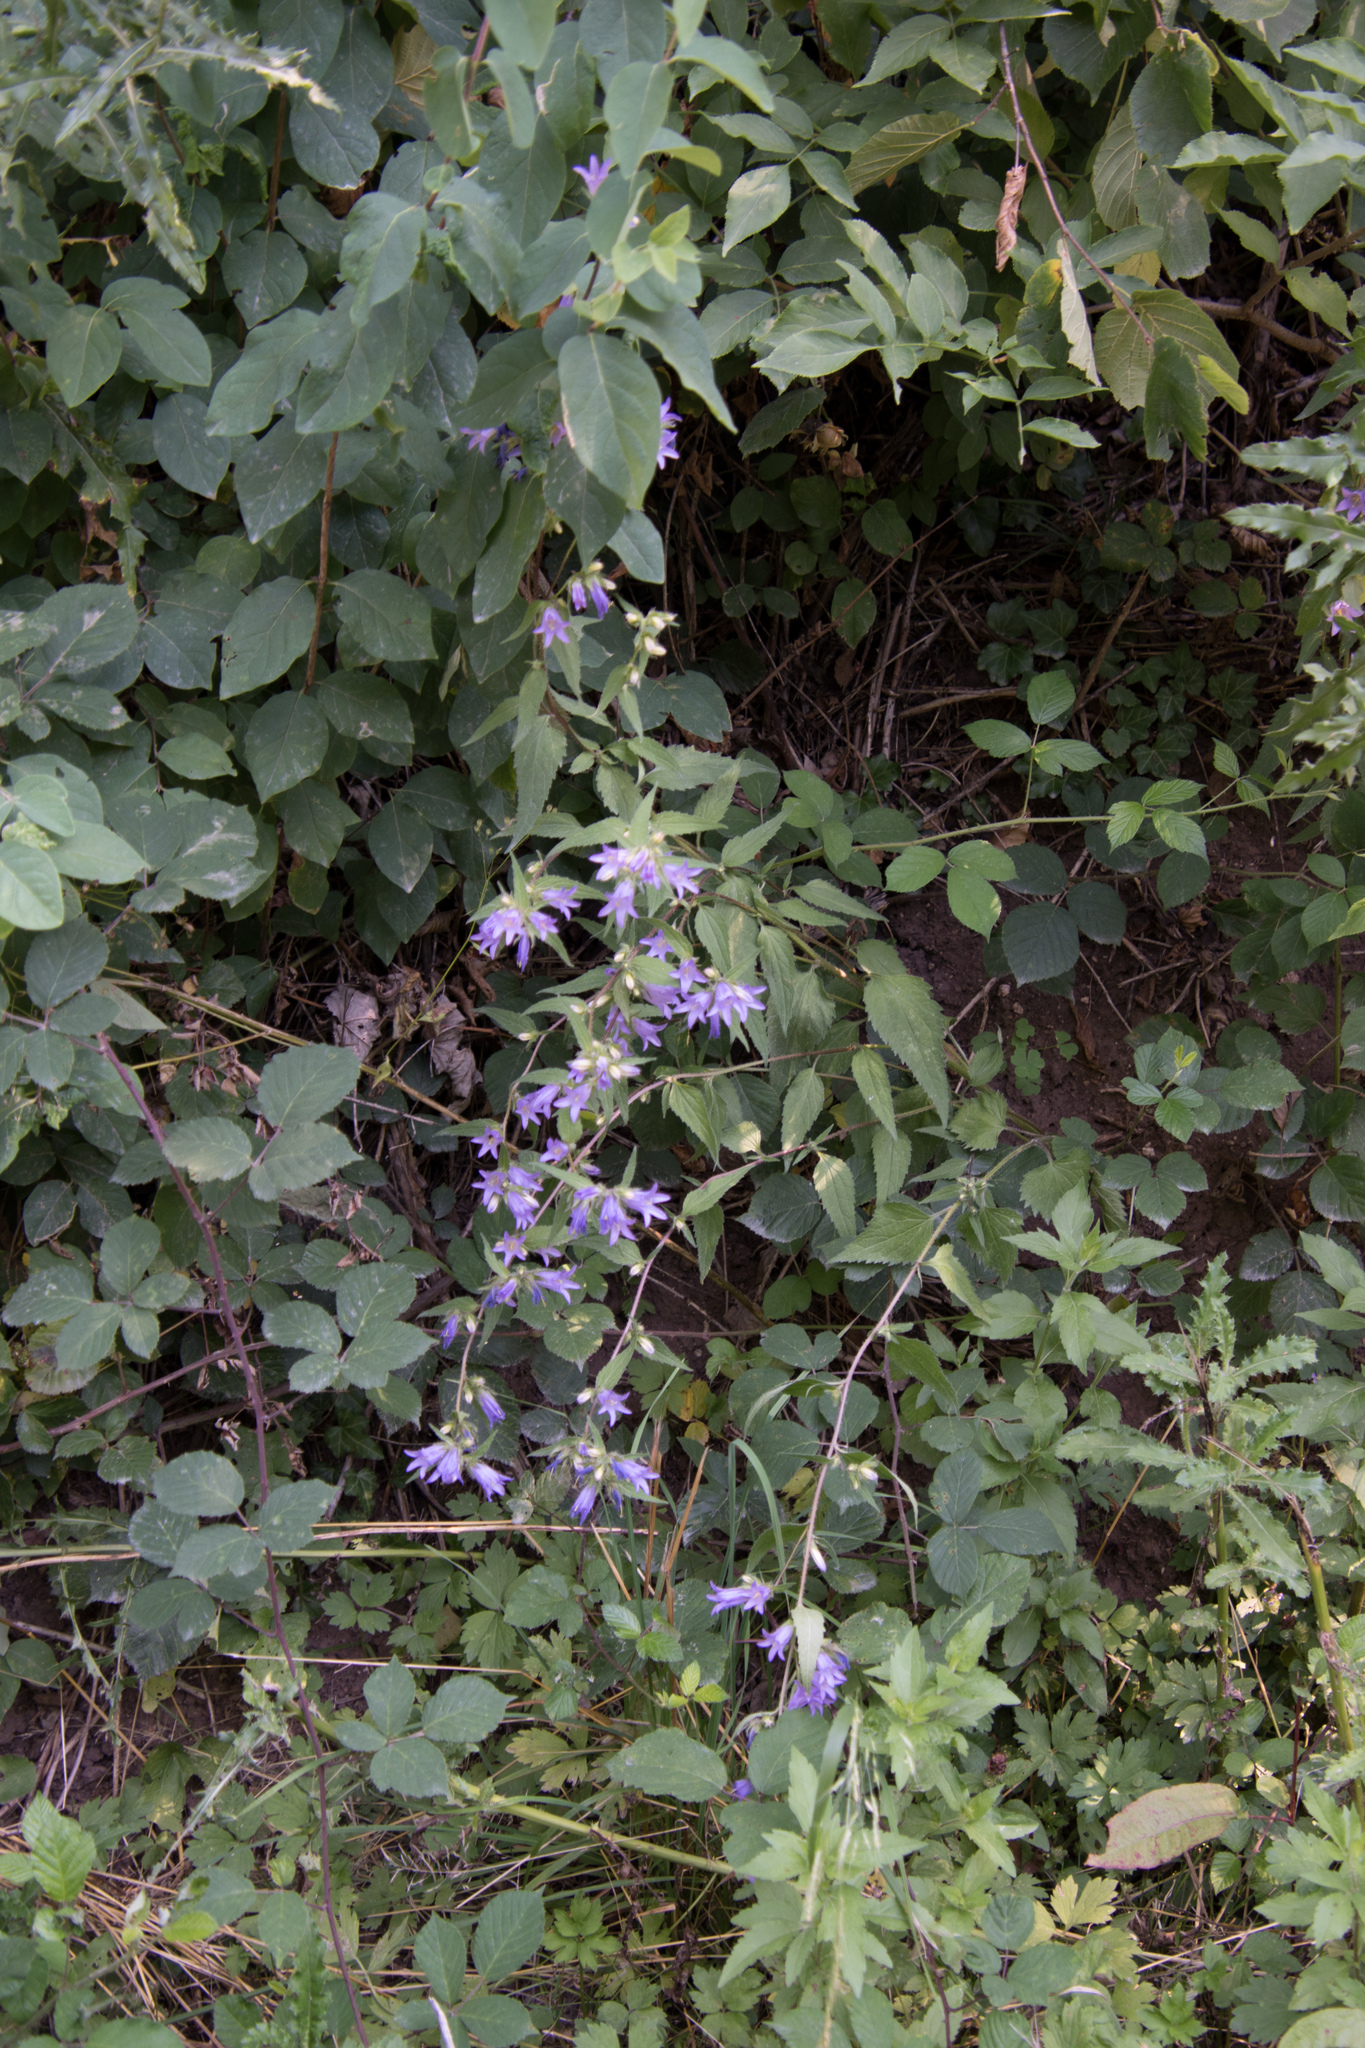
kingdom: Plantae
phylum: Tracheophyta
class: Magnoliopsida
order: Asterales
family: Campanulaceae
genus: Campanula
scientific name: Campanula trachelium
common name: Nettle-leaved bellflower
